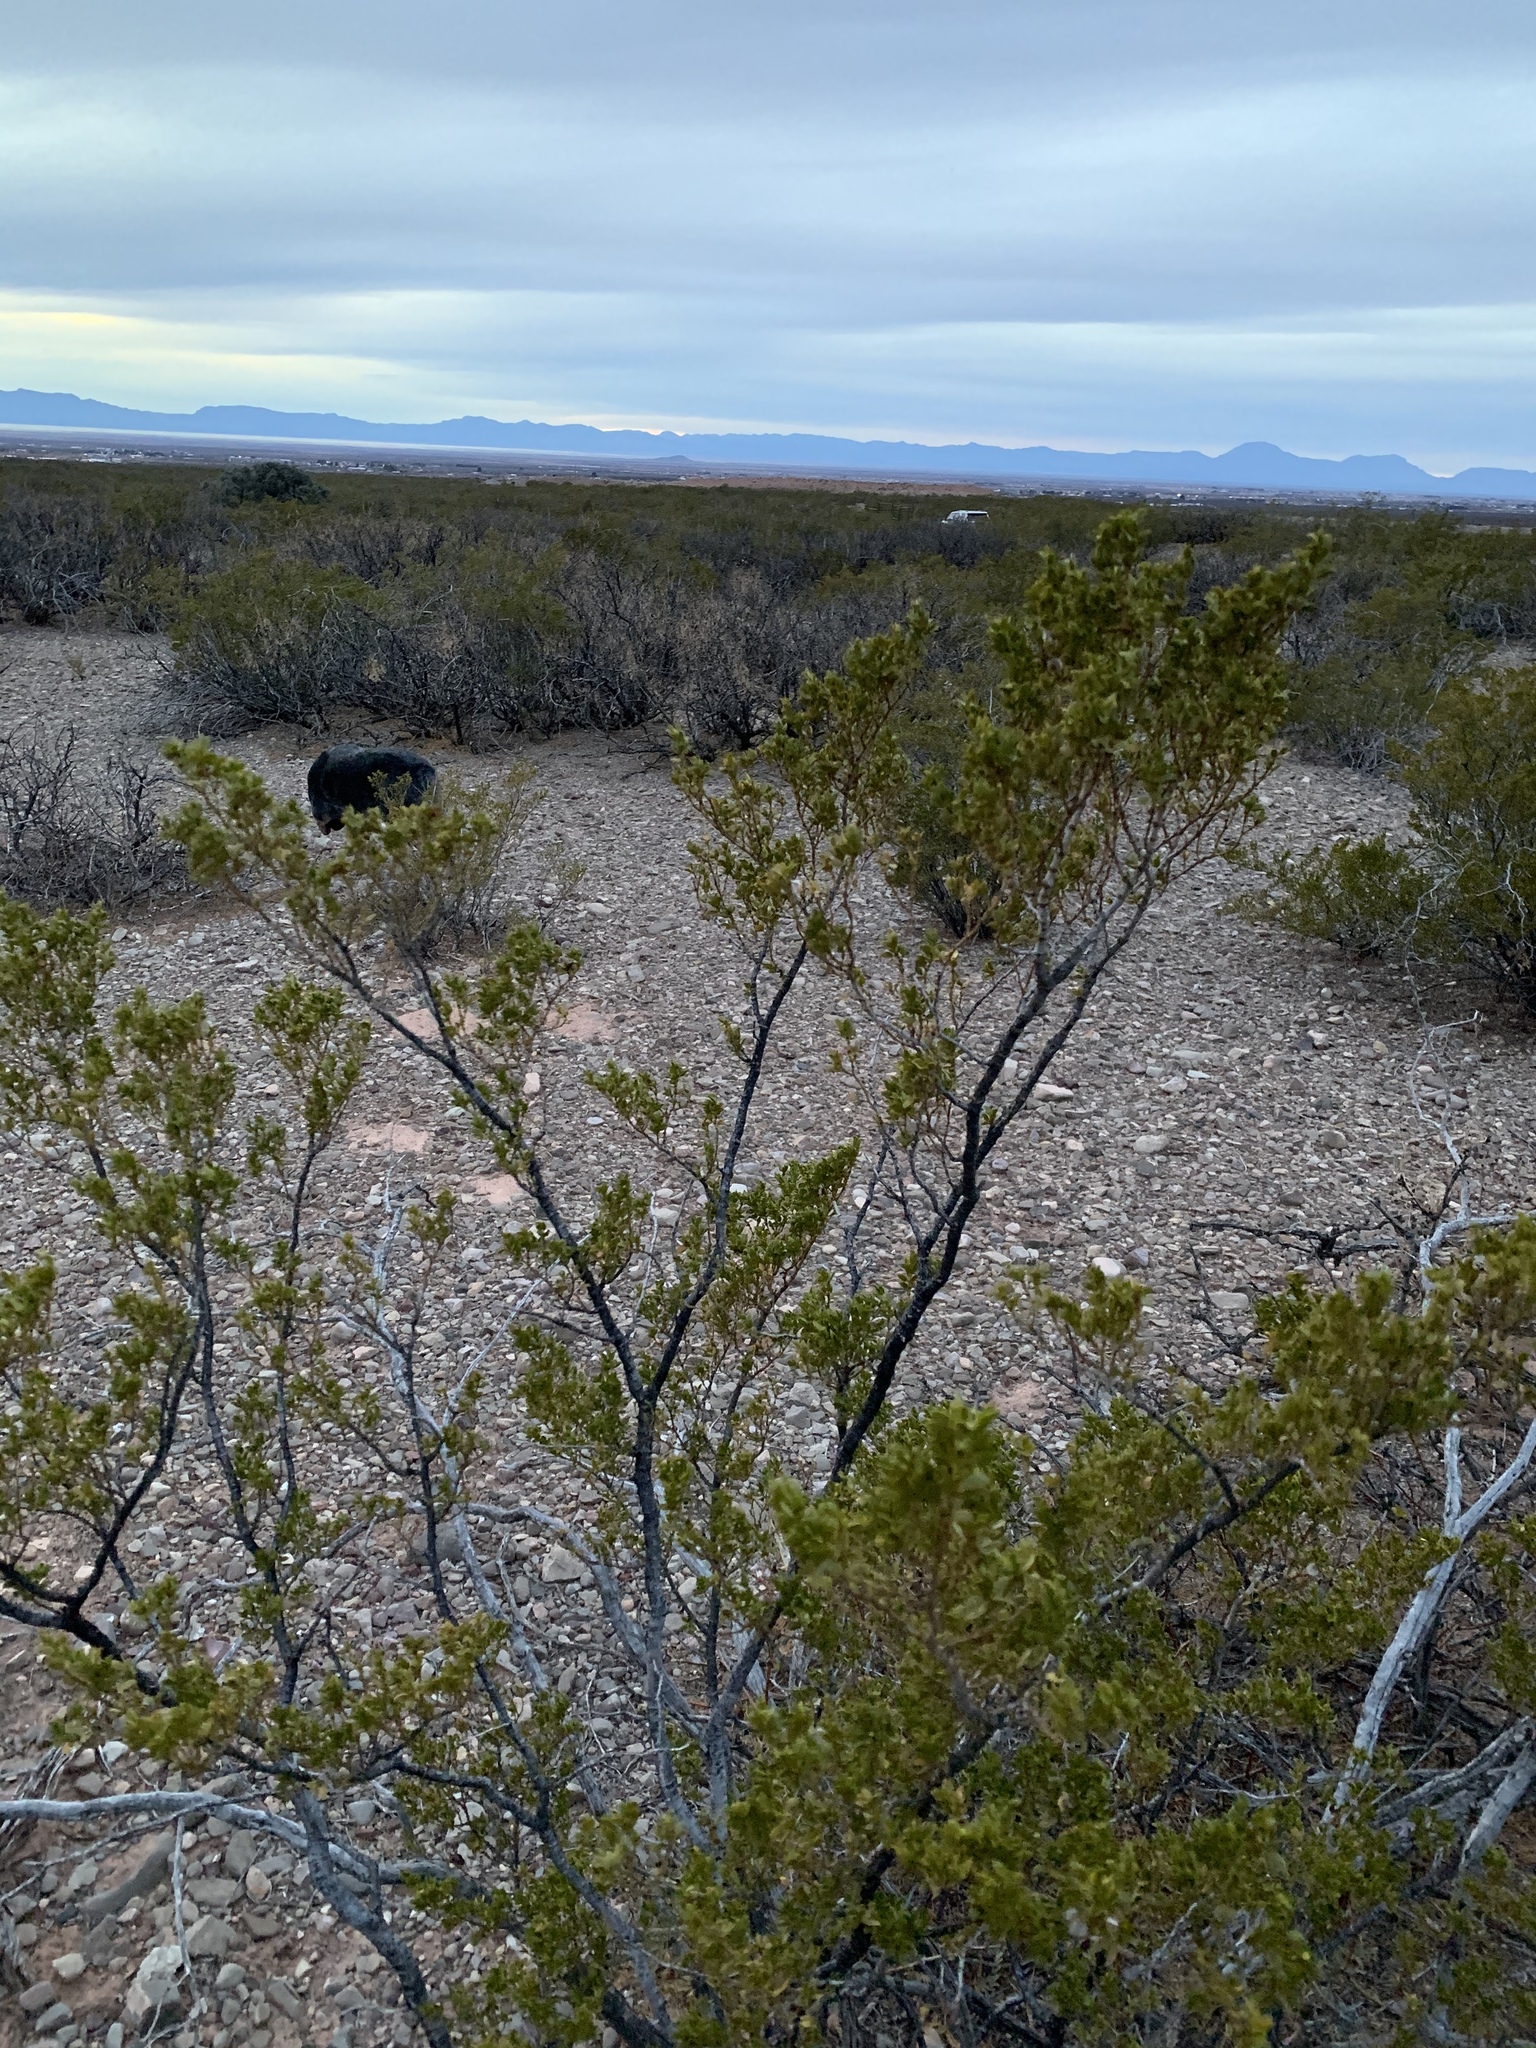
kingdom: Plantae
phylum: Tracheophyta
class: Magnoliopsida
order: Zygophyllales
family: Zygophyllaceae
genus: Larrea
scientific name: Larrea tridentata
